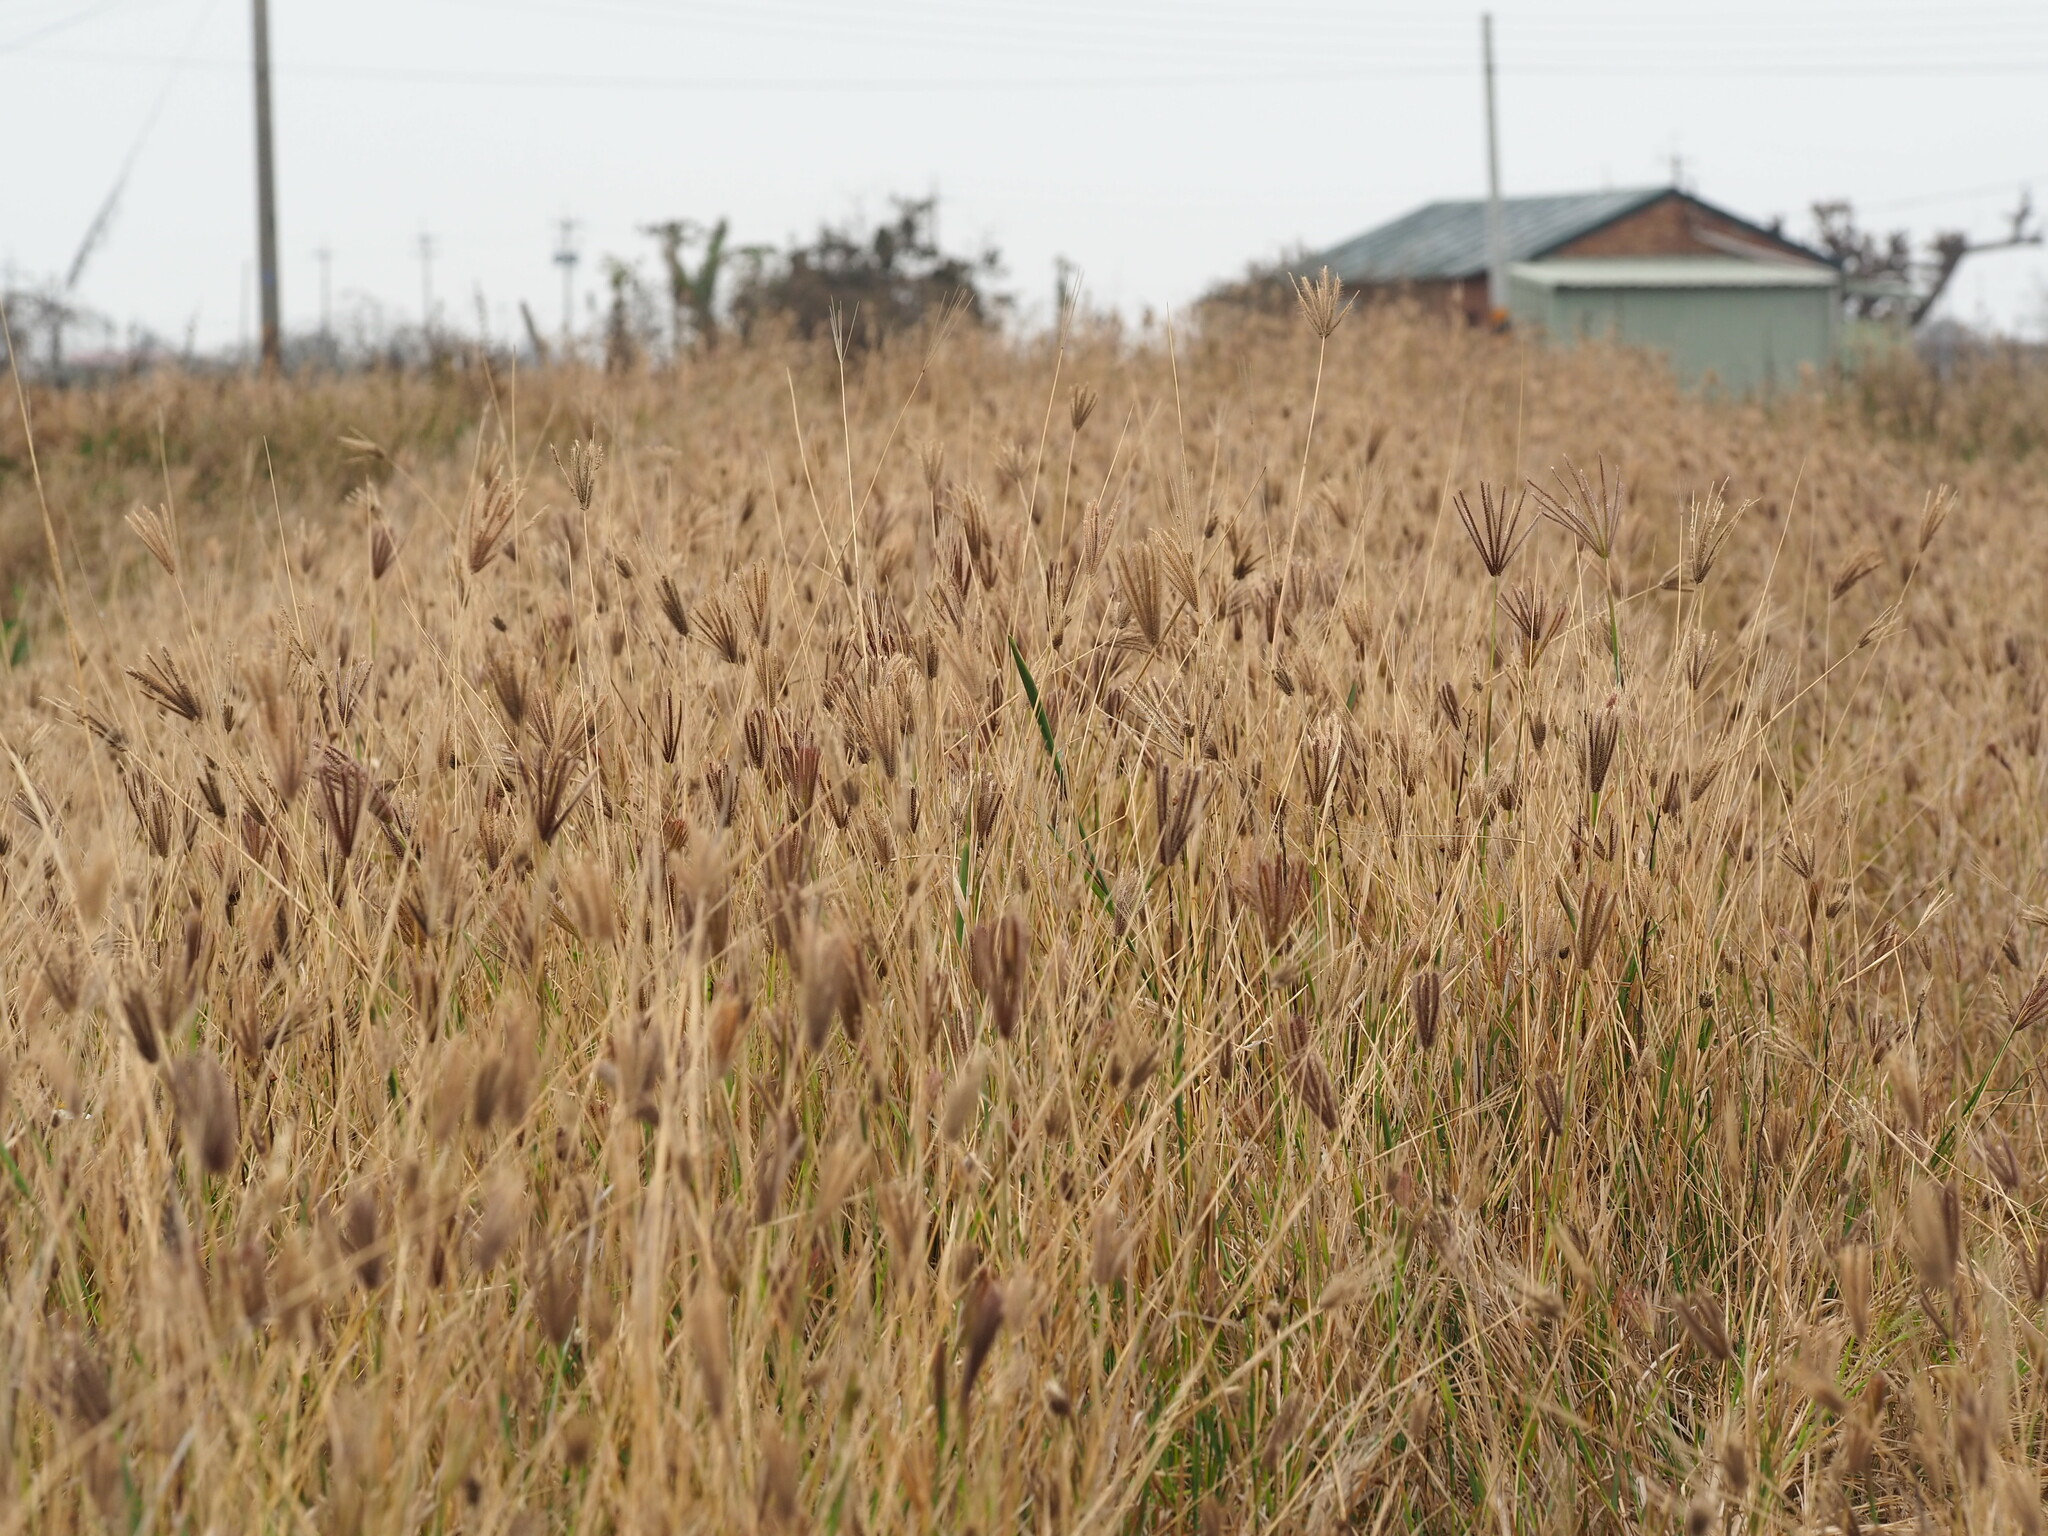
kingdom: Plantae
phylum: Tracheophyta
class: Liliopsida
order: Poales
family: Poaceae
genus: Chloris
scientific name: Chloris barbata
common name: Swollen fingergrass
